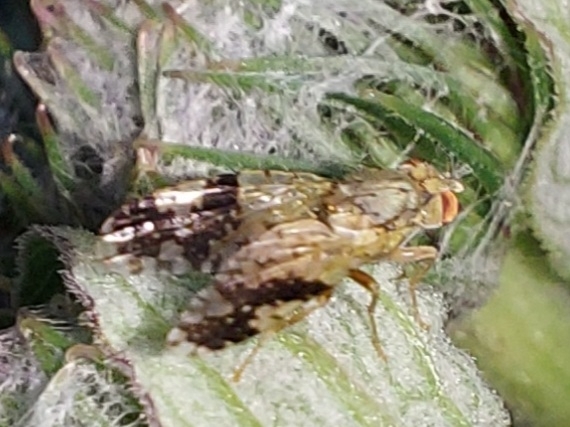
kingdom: Animalia
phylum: Arthropoda
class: Insecta
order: Diptera
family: Tephritidae
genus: Tephritis
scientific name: Tephritis bardanae
